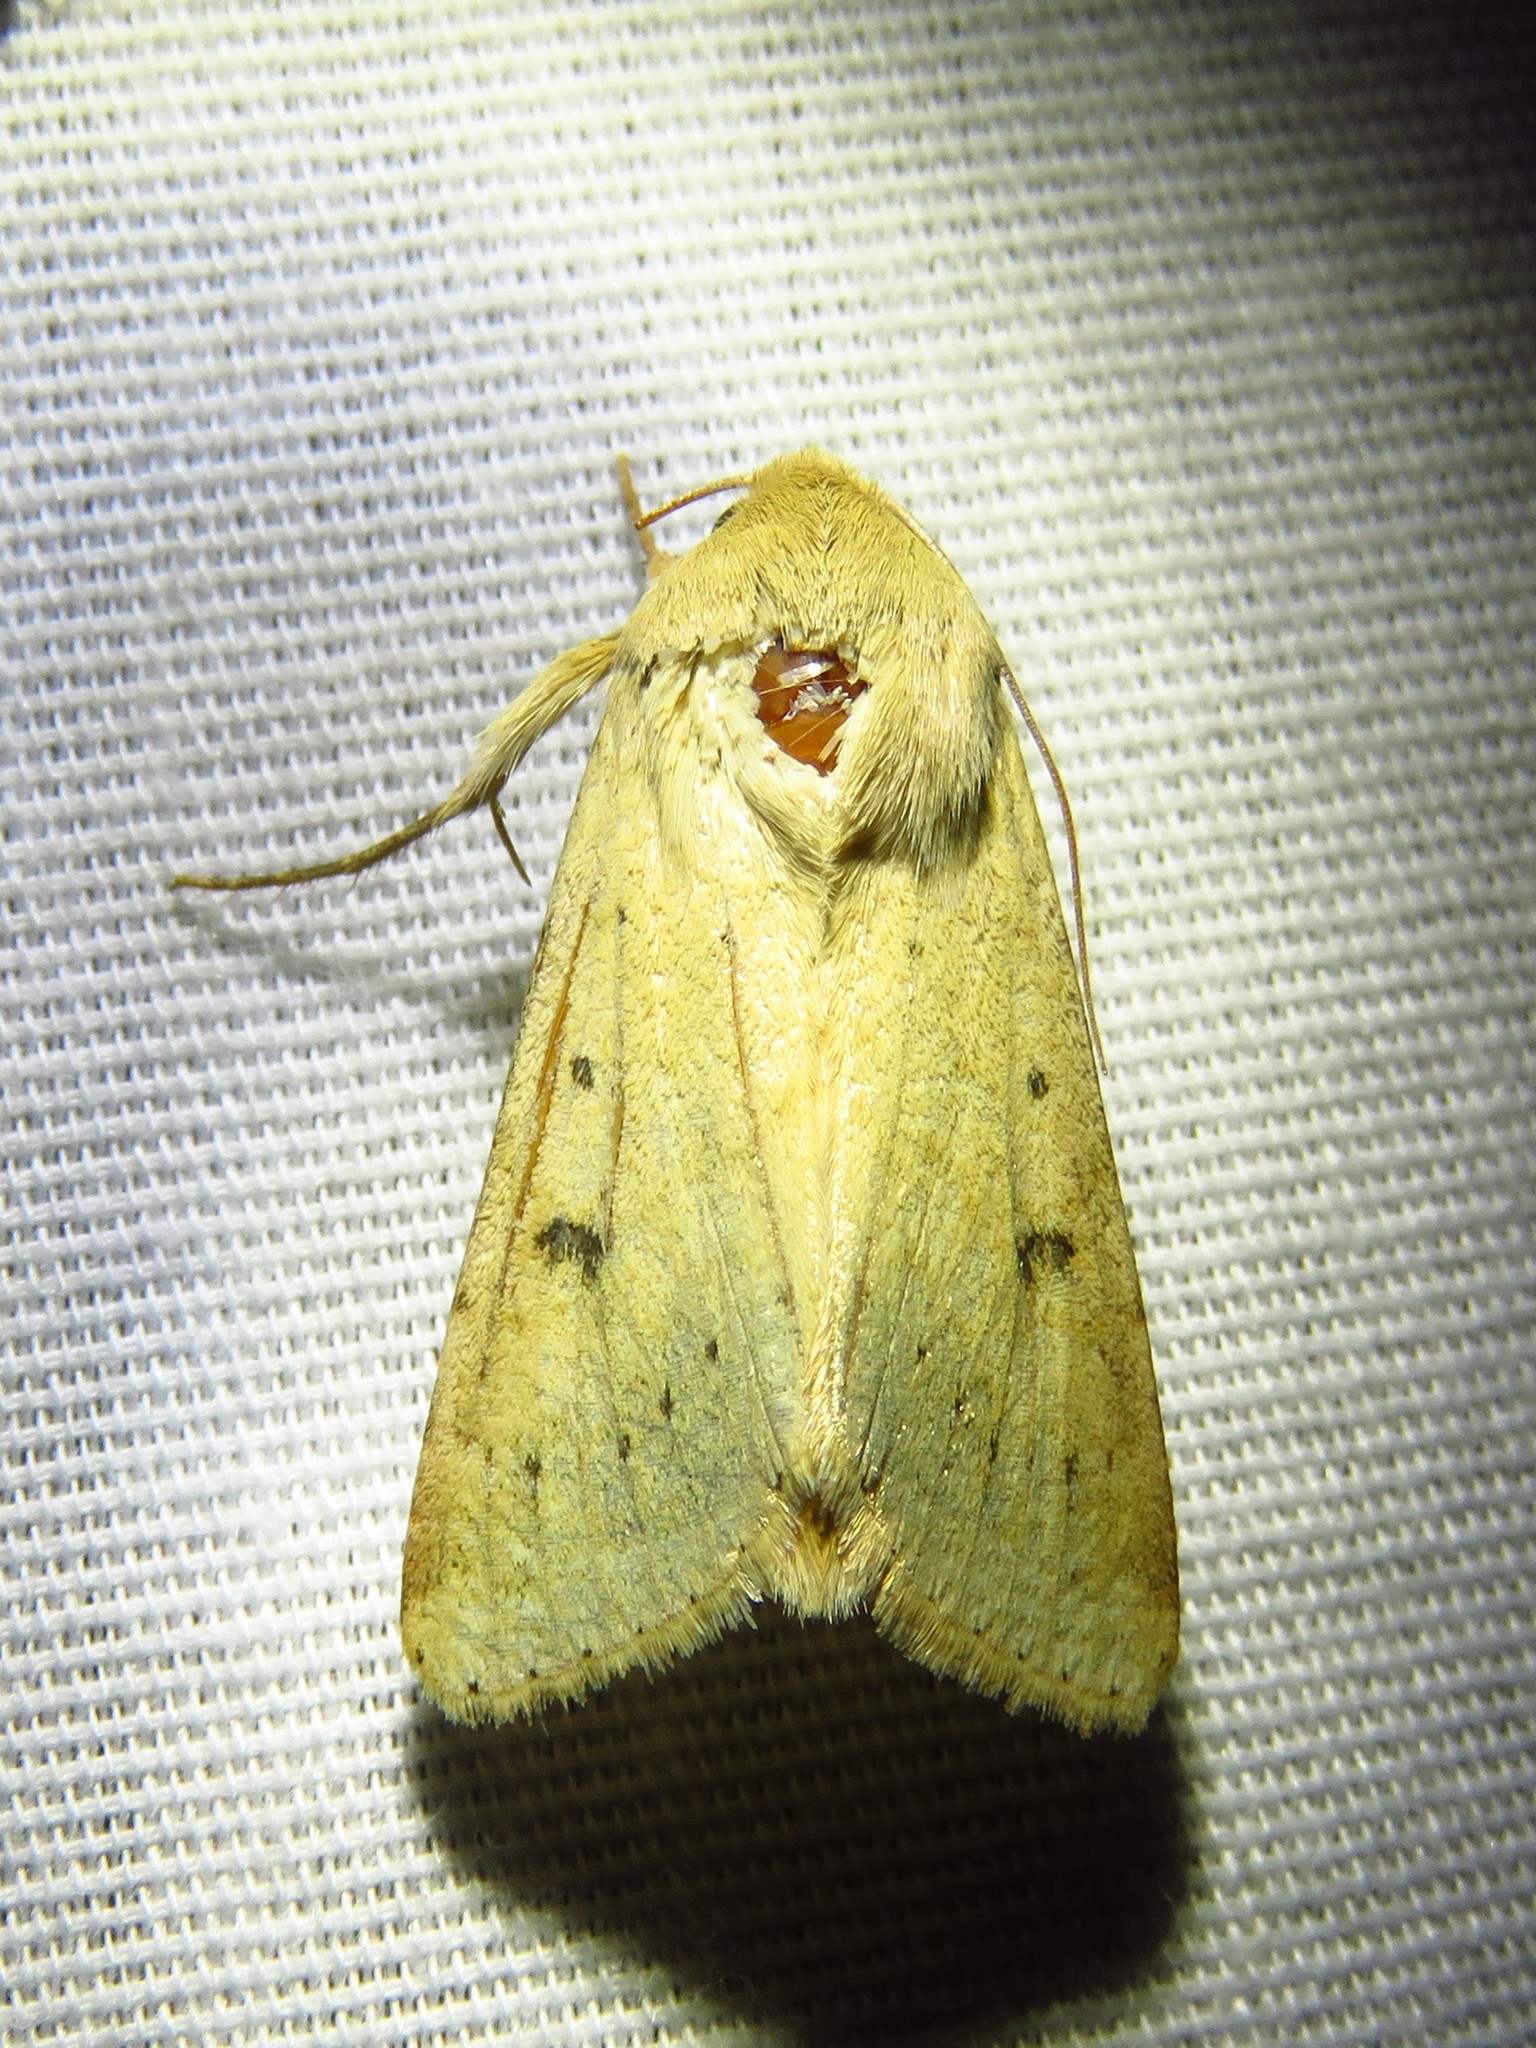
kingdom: Animalia
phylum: Arthropoda
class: Insecta
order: Lepidoptera
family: Noctuidae
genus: Helicoverpa
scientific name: Helicoverpa zea
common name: Bollworm
